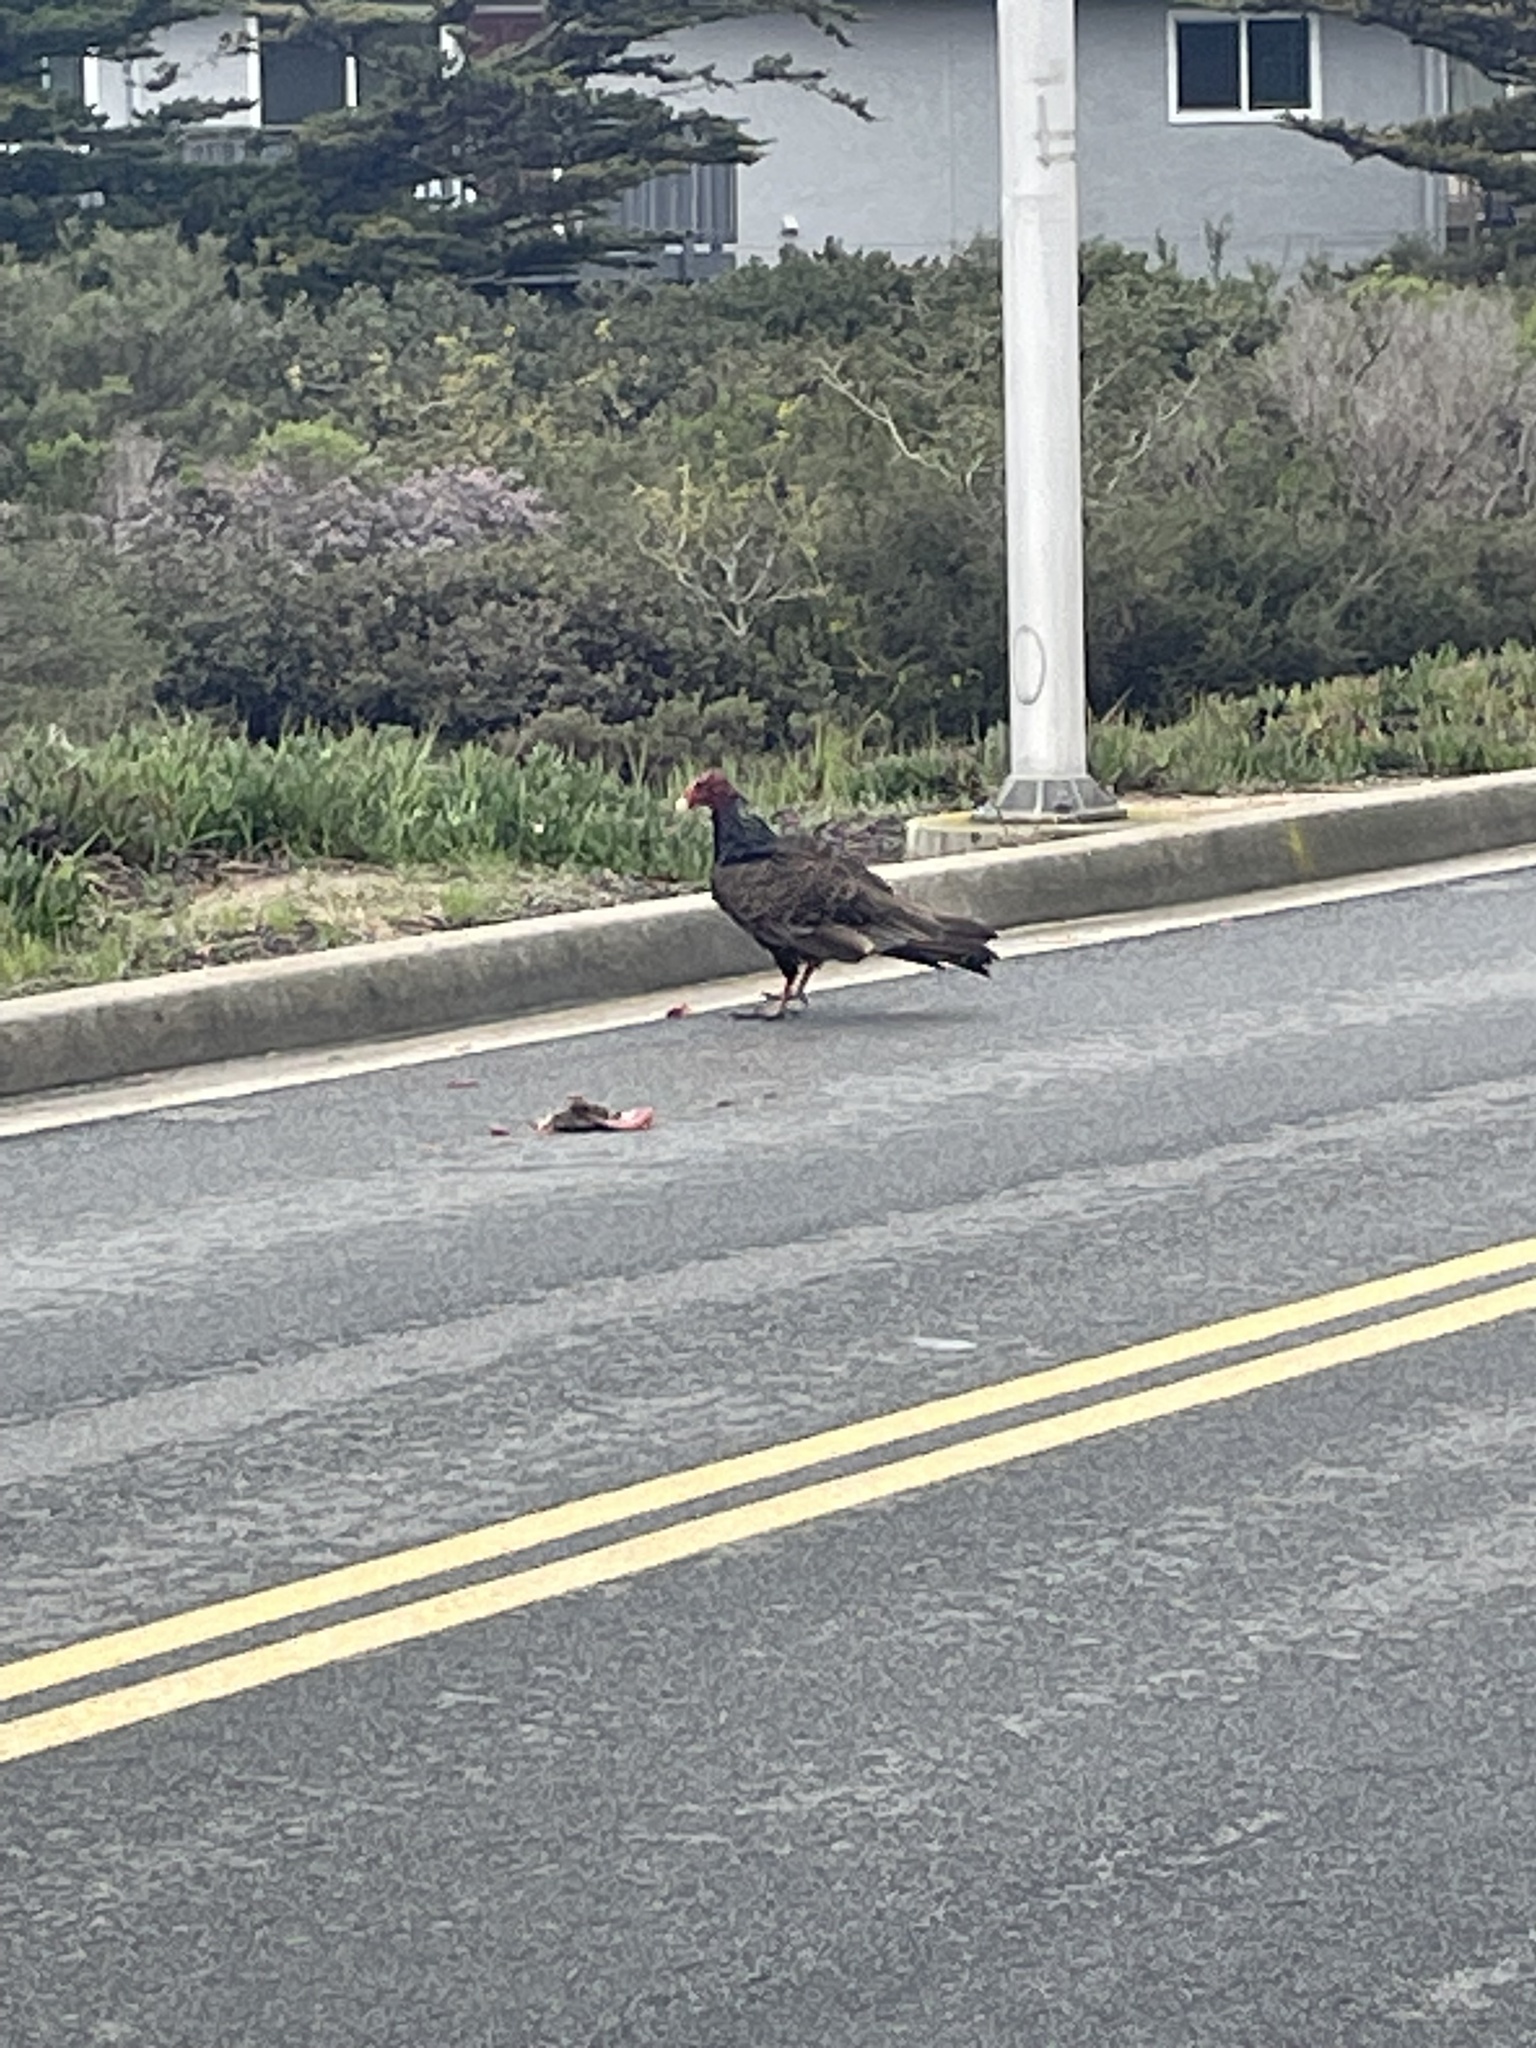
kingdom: Animalia
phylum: Chordata
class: Aves
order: Accipitriformes
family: Cathartidae
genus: Cathartes
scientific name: Cathartes aura
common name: Turkey vulture
